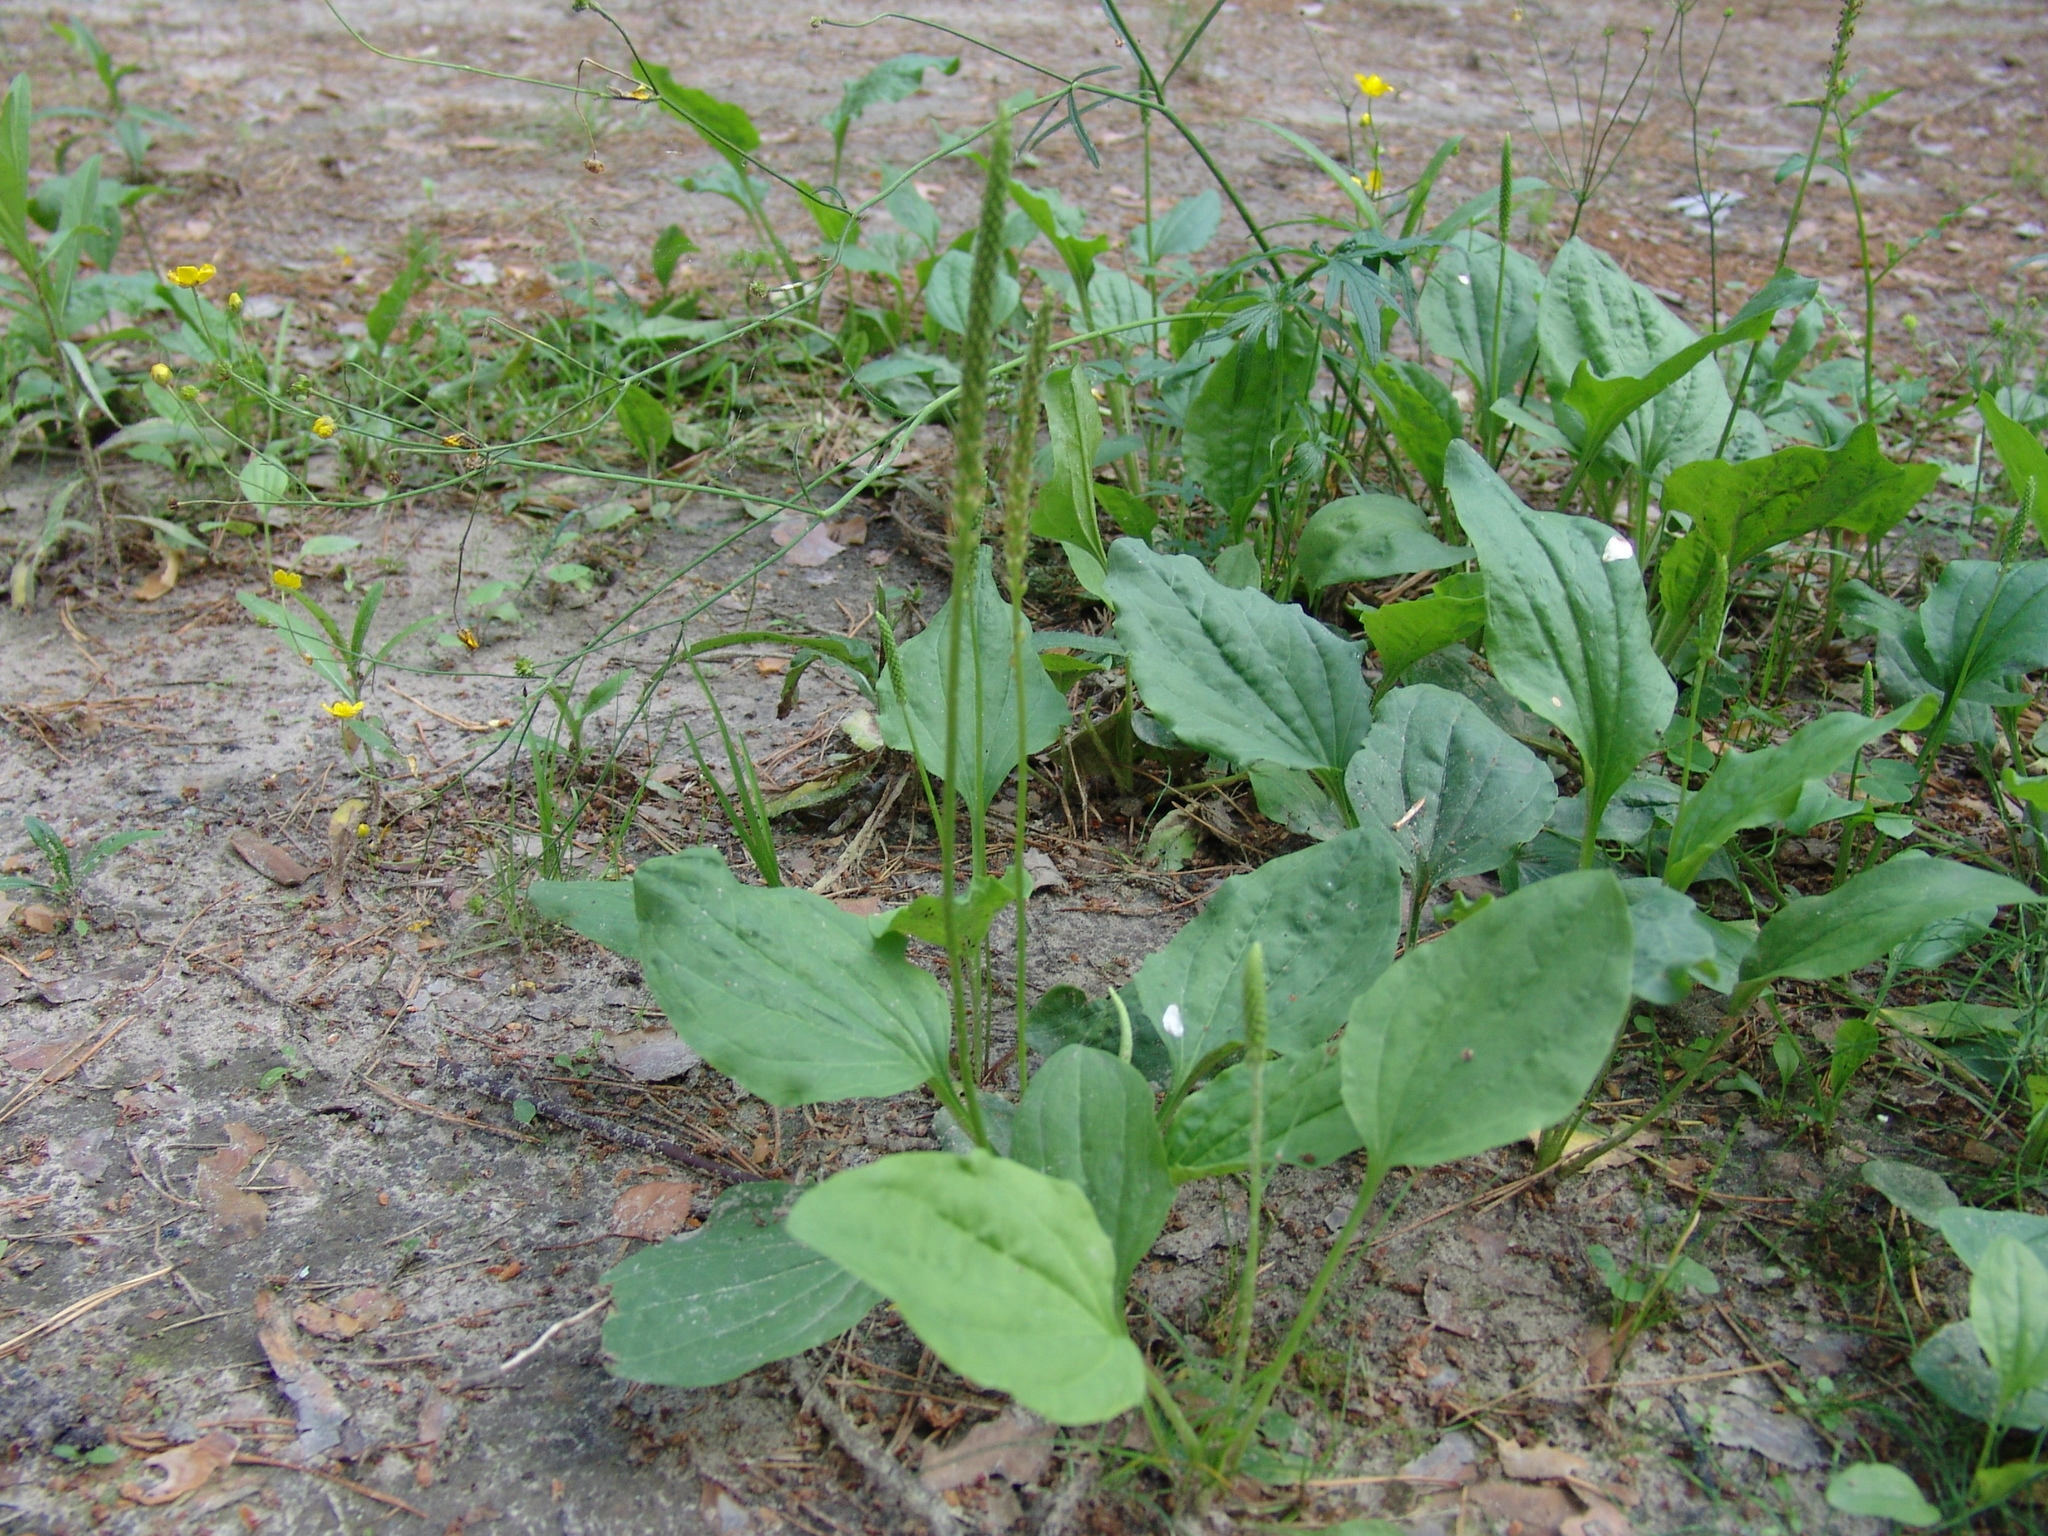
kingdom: Plantae
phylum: Tracheophyta
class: Magnoliopsida
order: Lamiales
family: Plantaginaceae
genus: Plantago
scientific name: Plantago major
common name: Common plantain
